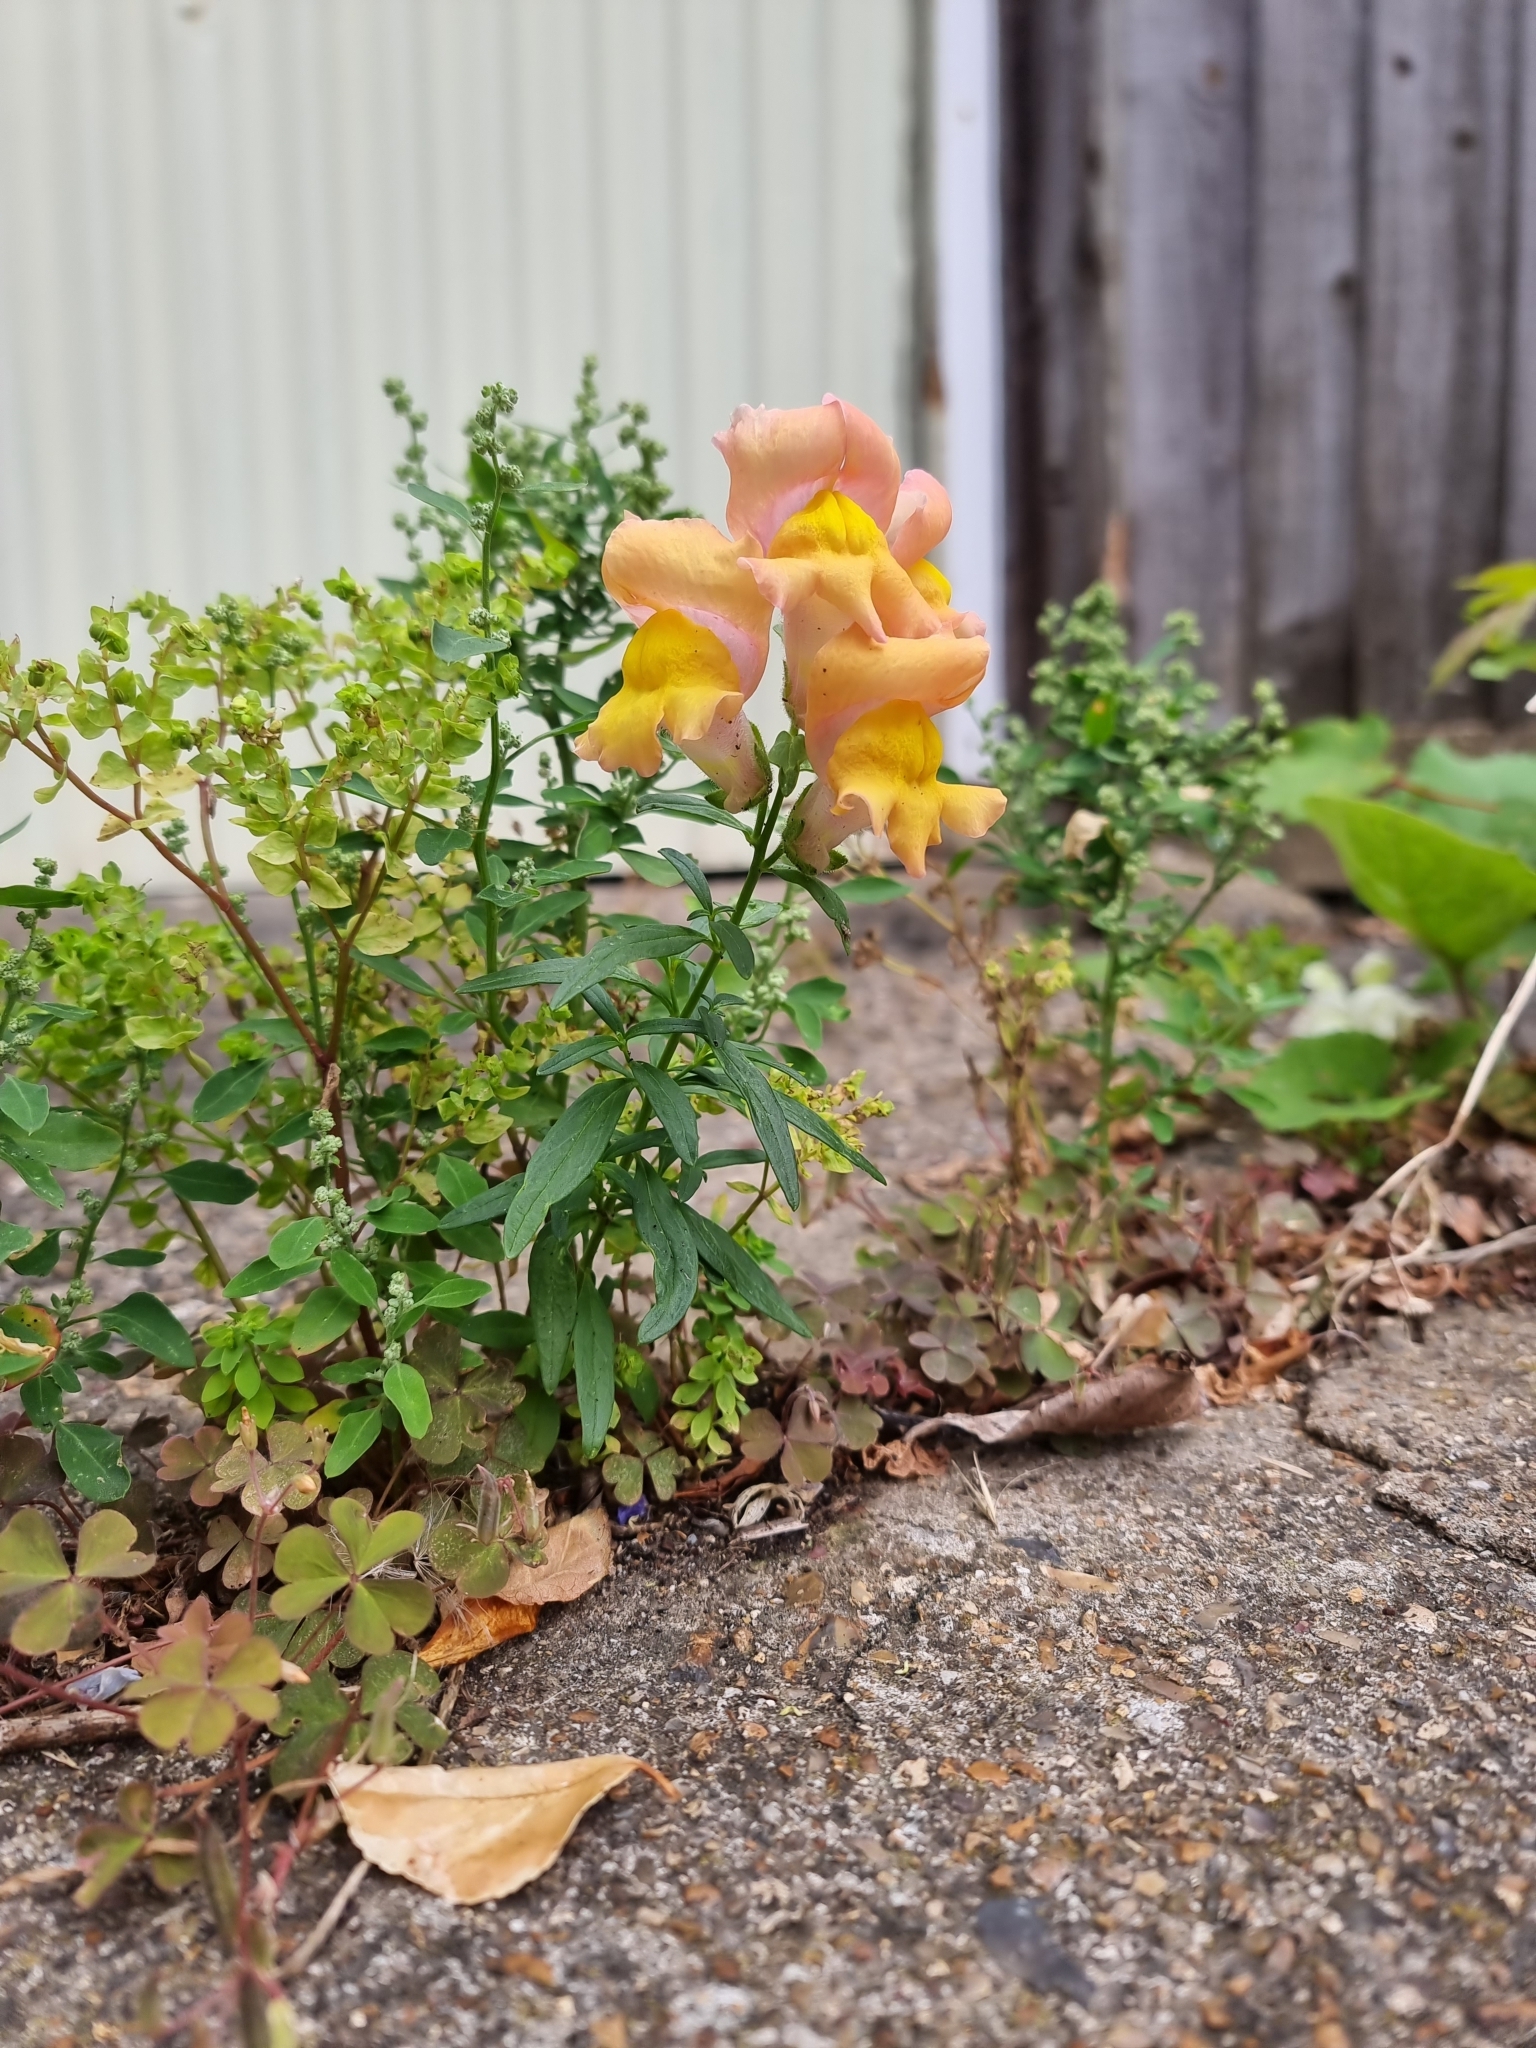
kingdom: Plantae
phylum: Tracheophyta
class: Magnoliopsida
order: Lamiales
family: Plantaginaceae
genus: Antirrhinum
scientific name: Antirrhinum majus
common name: Snapdragon
